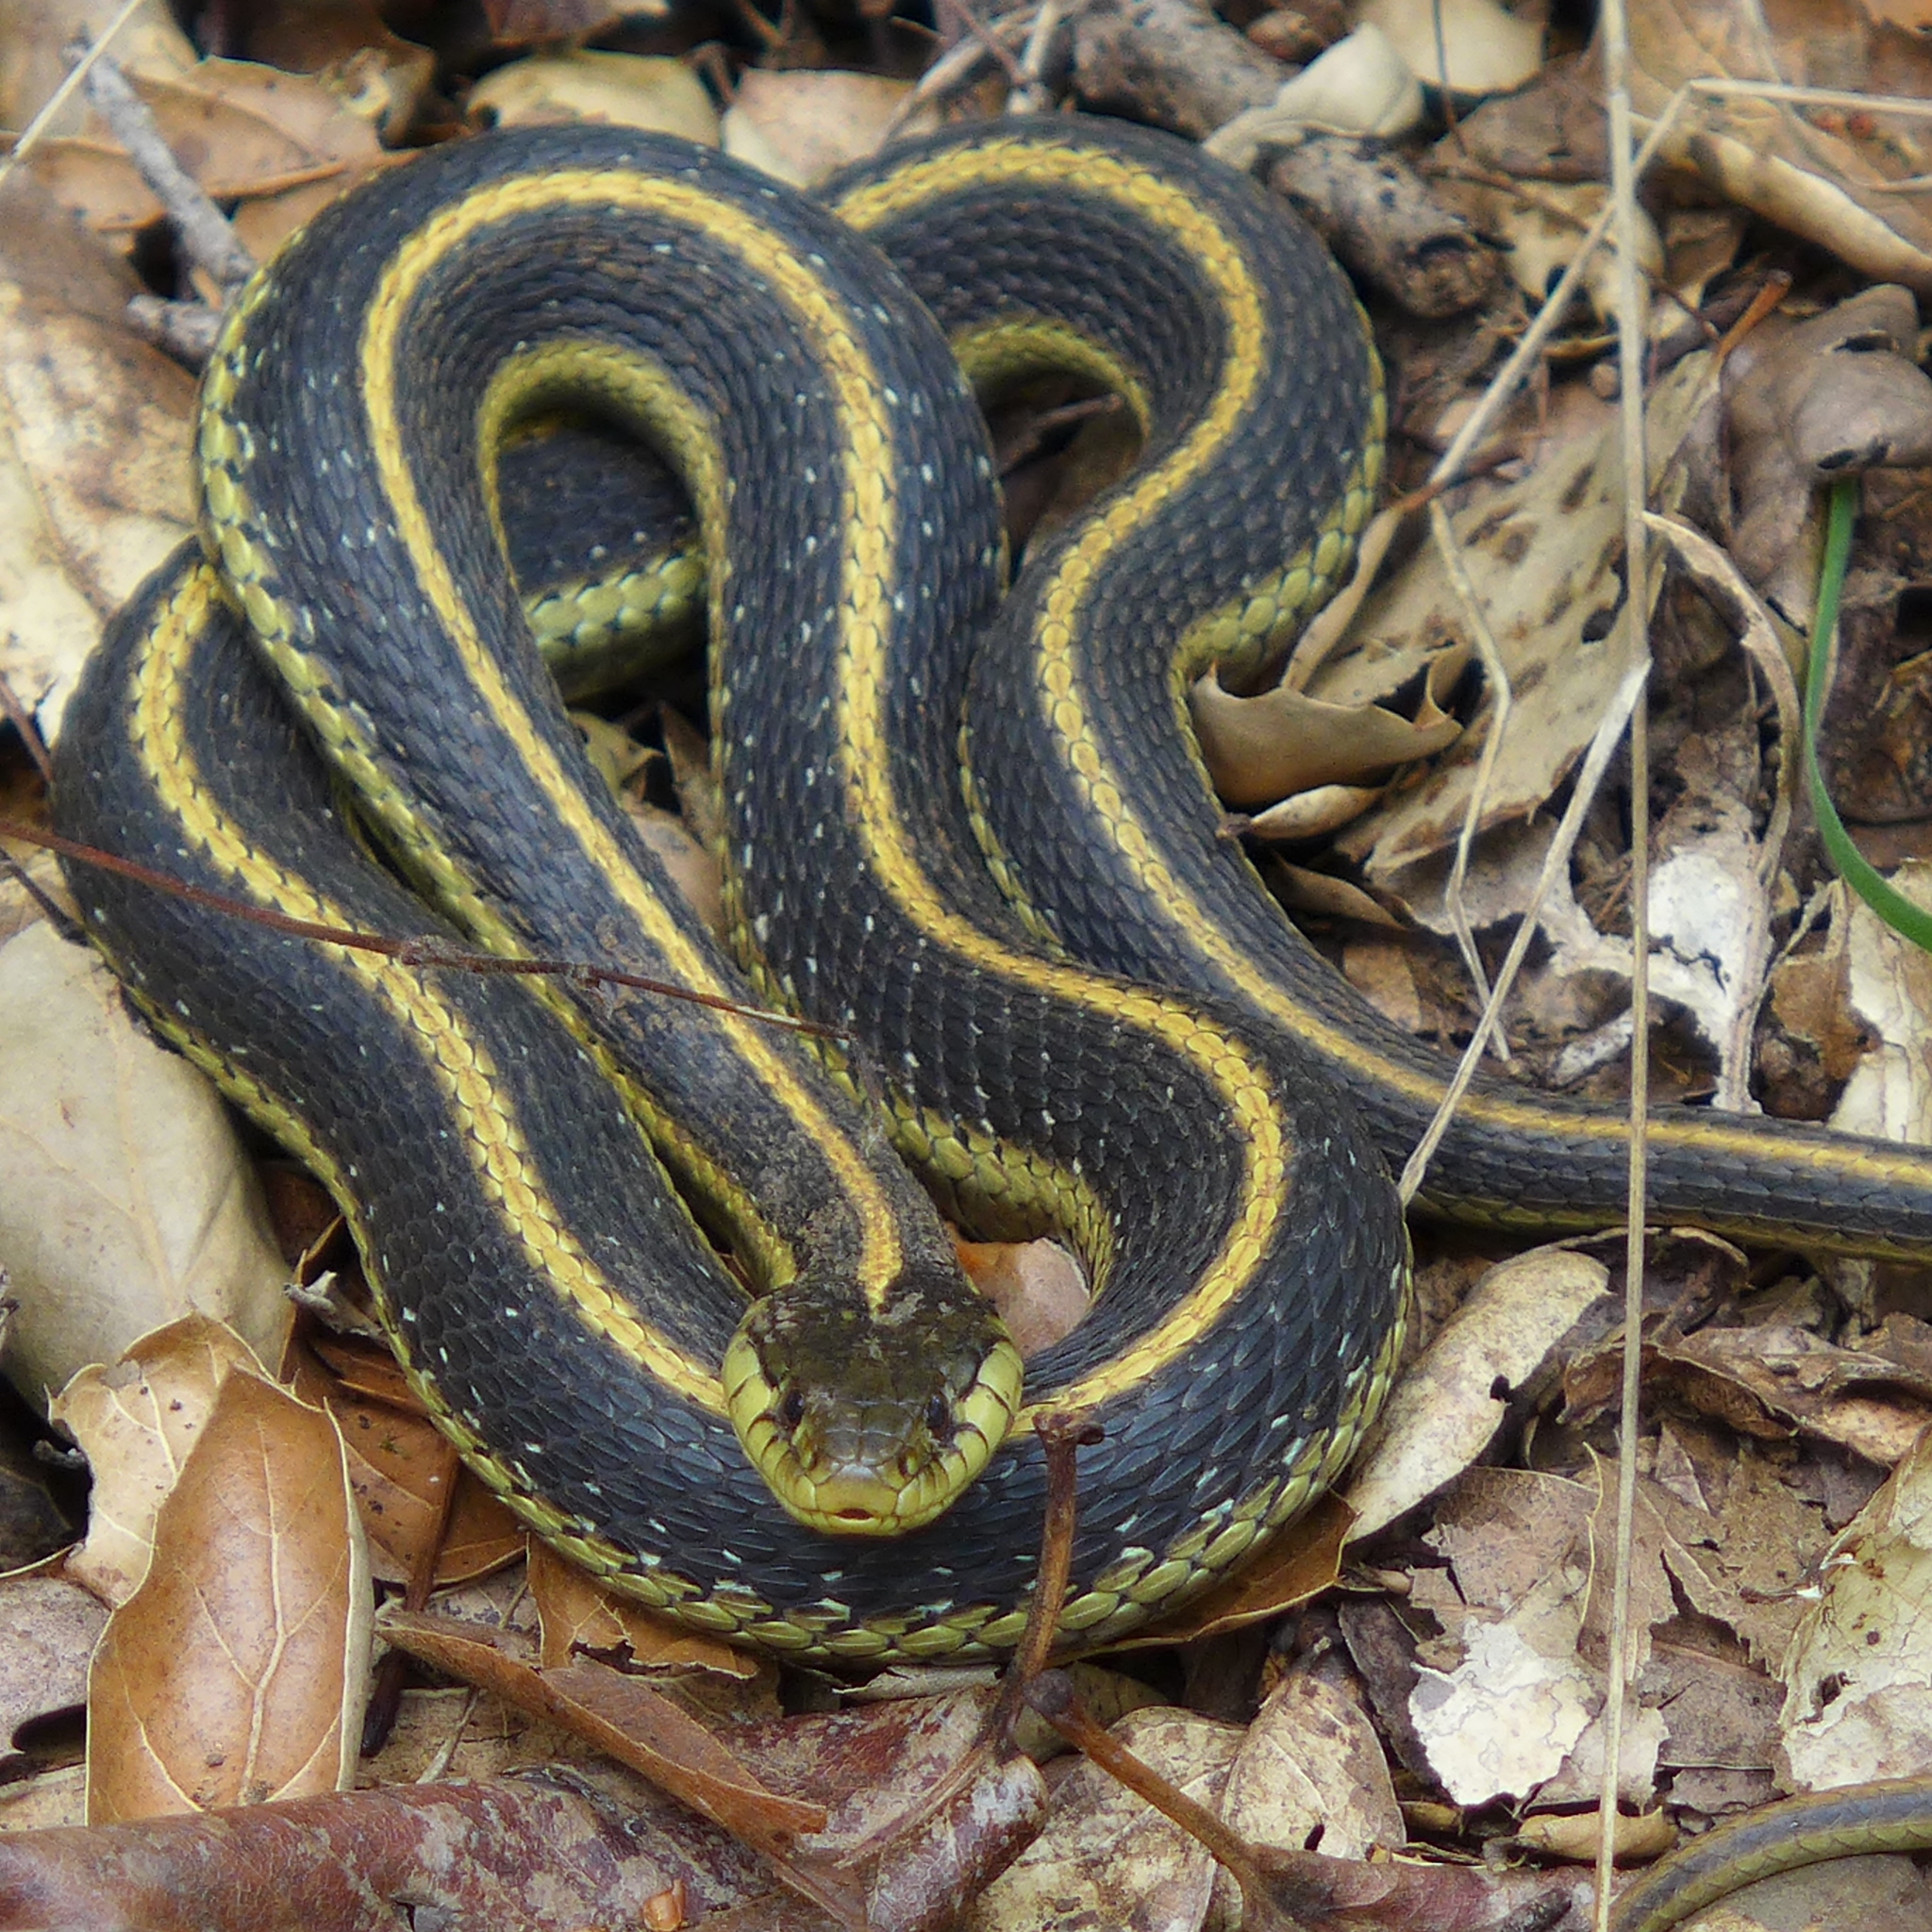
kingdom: Animalia
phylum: Chordata
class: Squamata
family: Colubridae
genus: Thamnophis
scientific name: Thamnophis atratus
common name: Pacific coast aquatic garter snake
